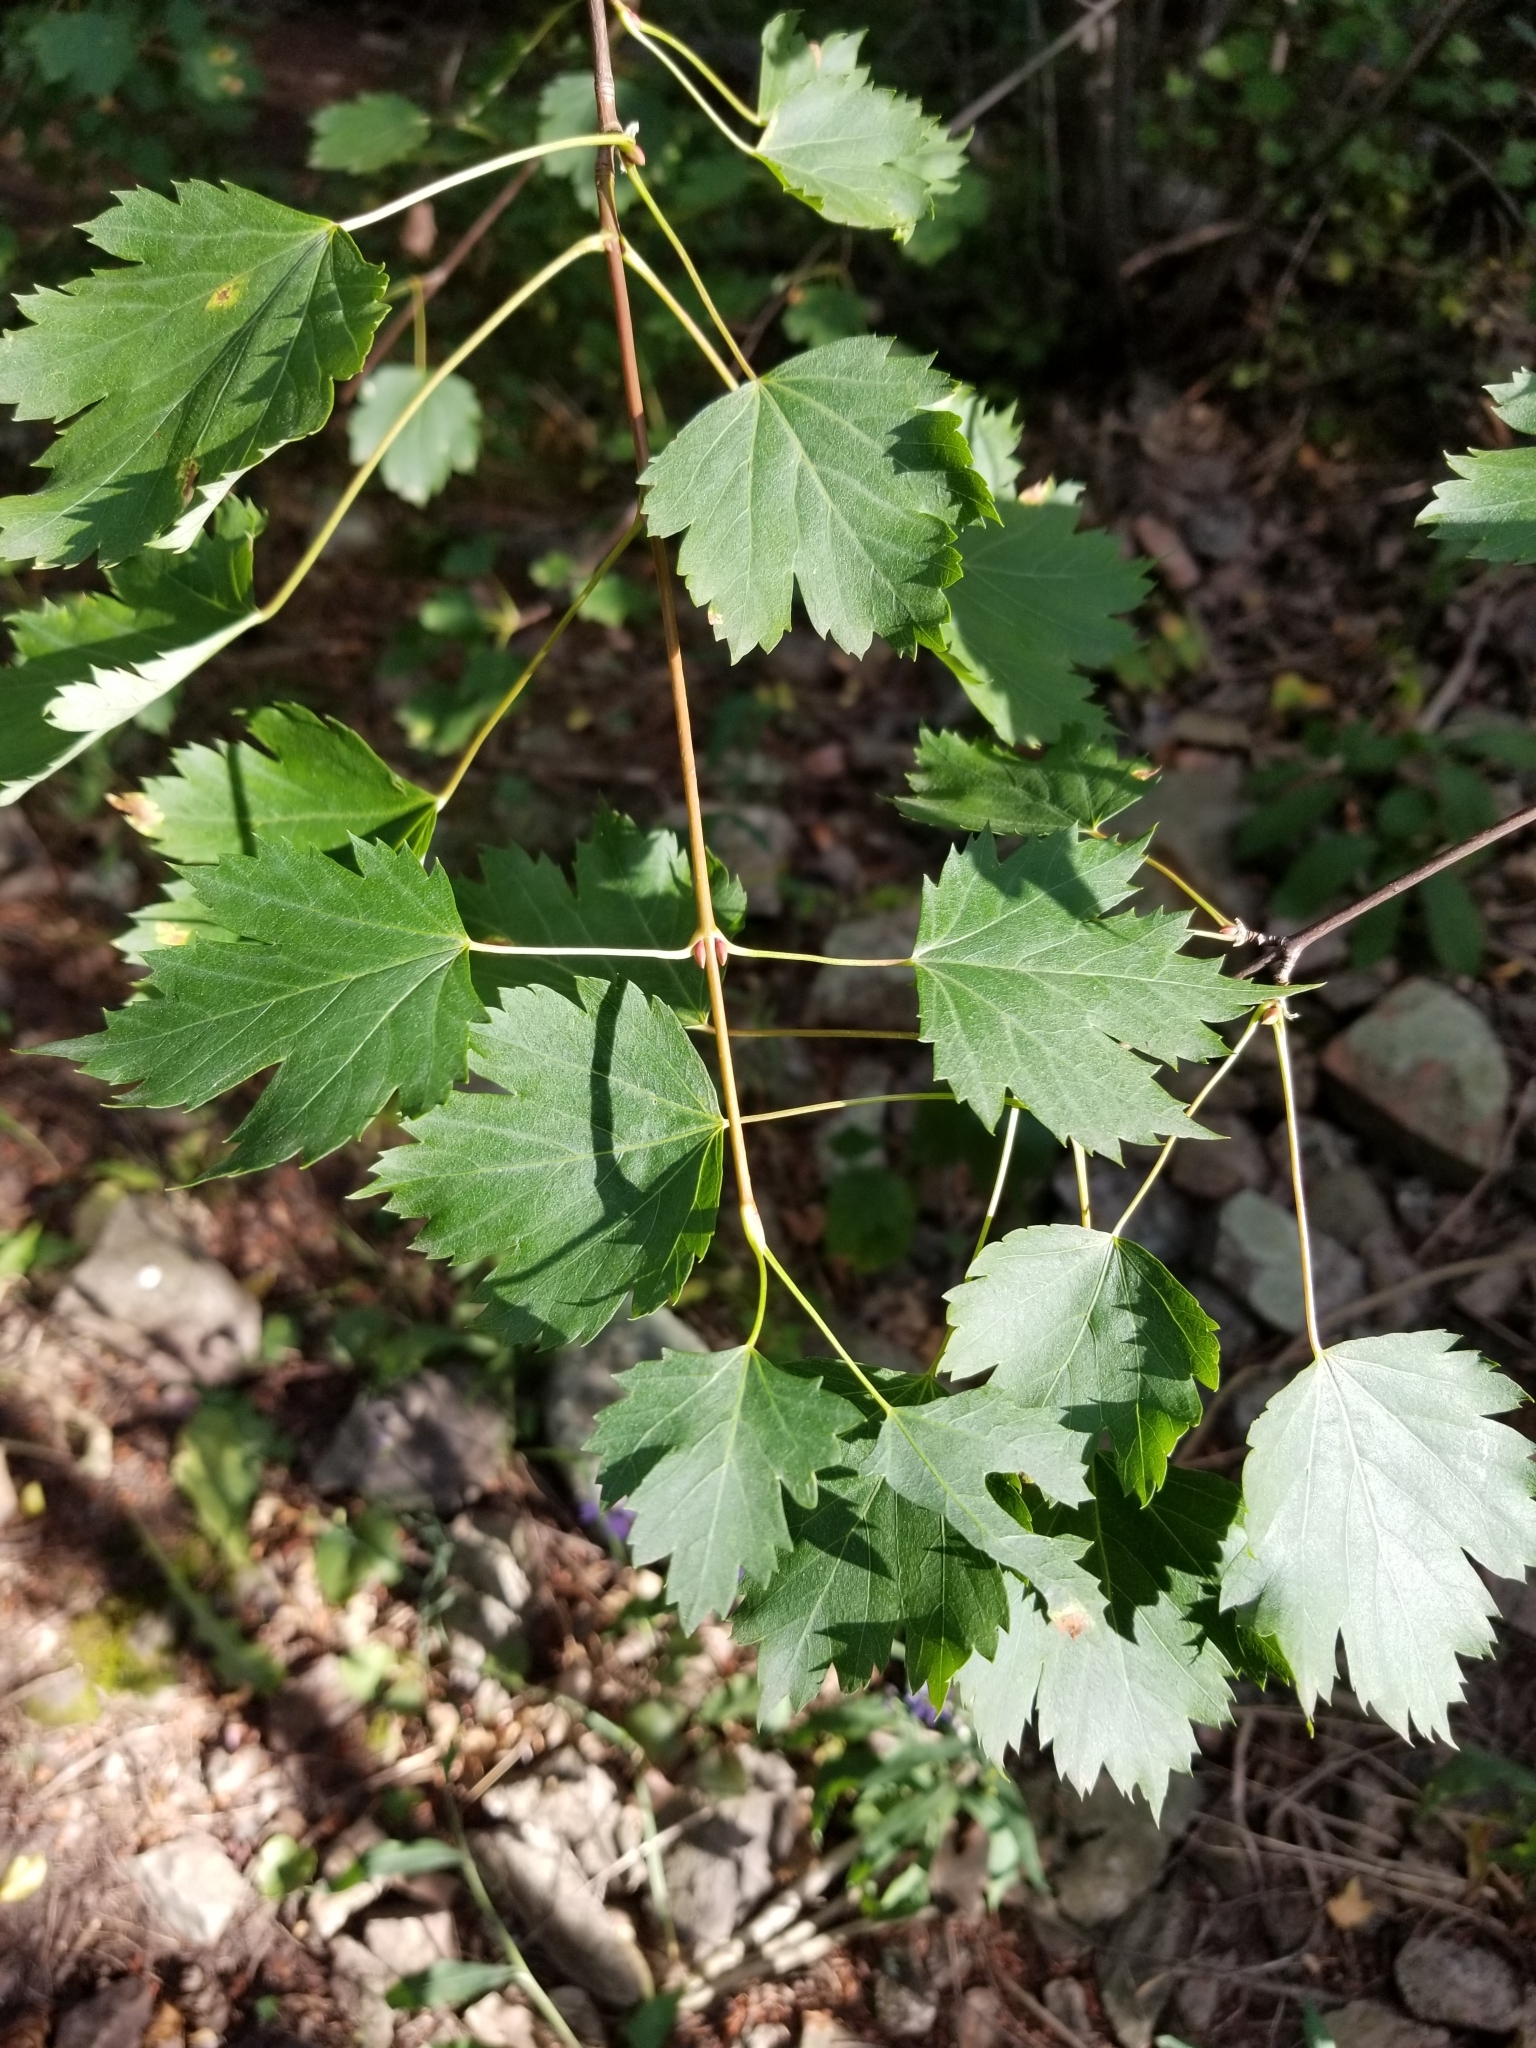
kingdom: Plantae
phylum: Tracheophyta
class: Magnoliopsida
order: Sapindales
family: Sapindaceae
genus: Acer
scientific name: Acer glabrum
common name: Rocky mountain maple
